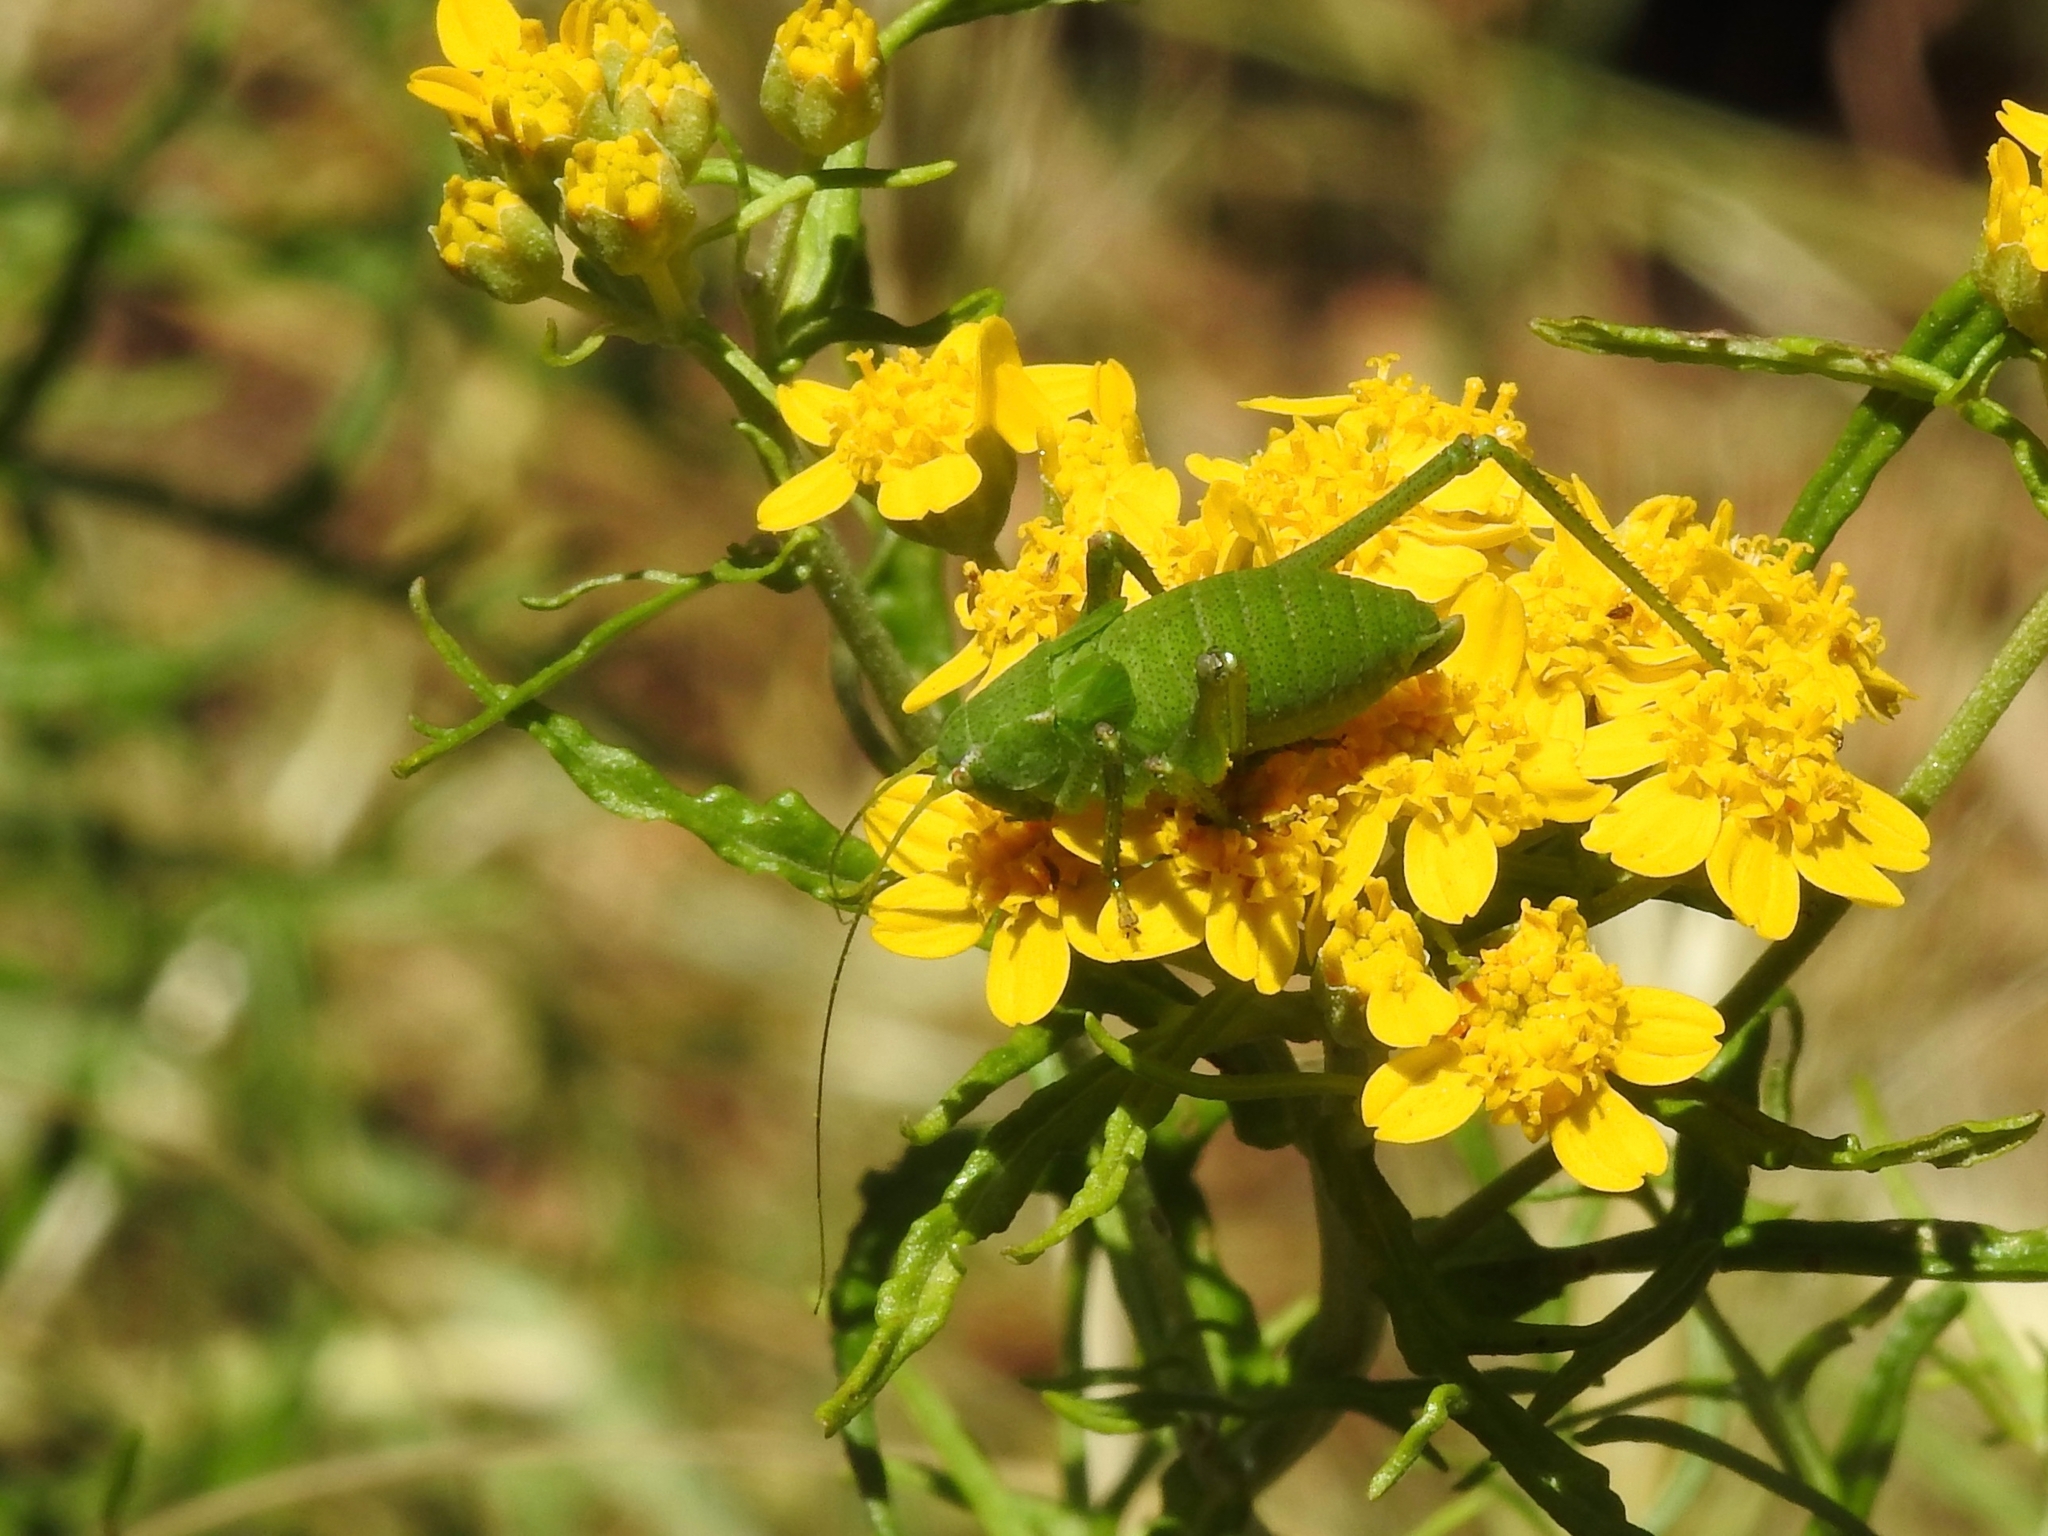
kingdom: Animalia
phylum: Arthropoda
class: Insecta
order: Orthoptera
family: Tettigoniidae
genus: Platylyra
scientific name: Platylyra californica
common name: Chaparral false katydid
